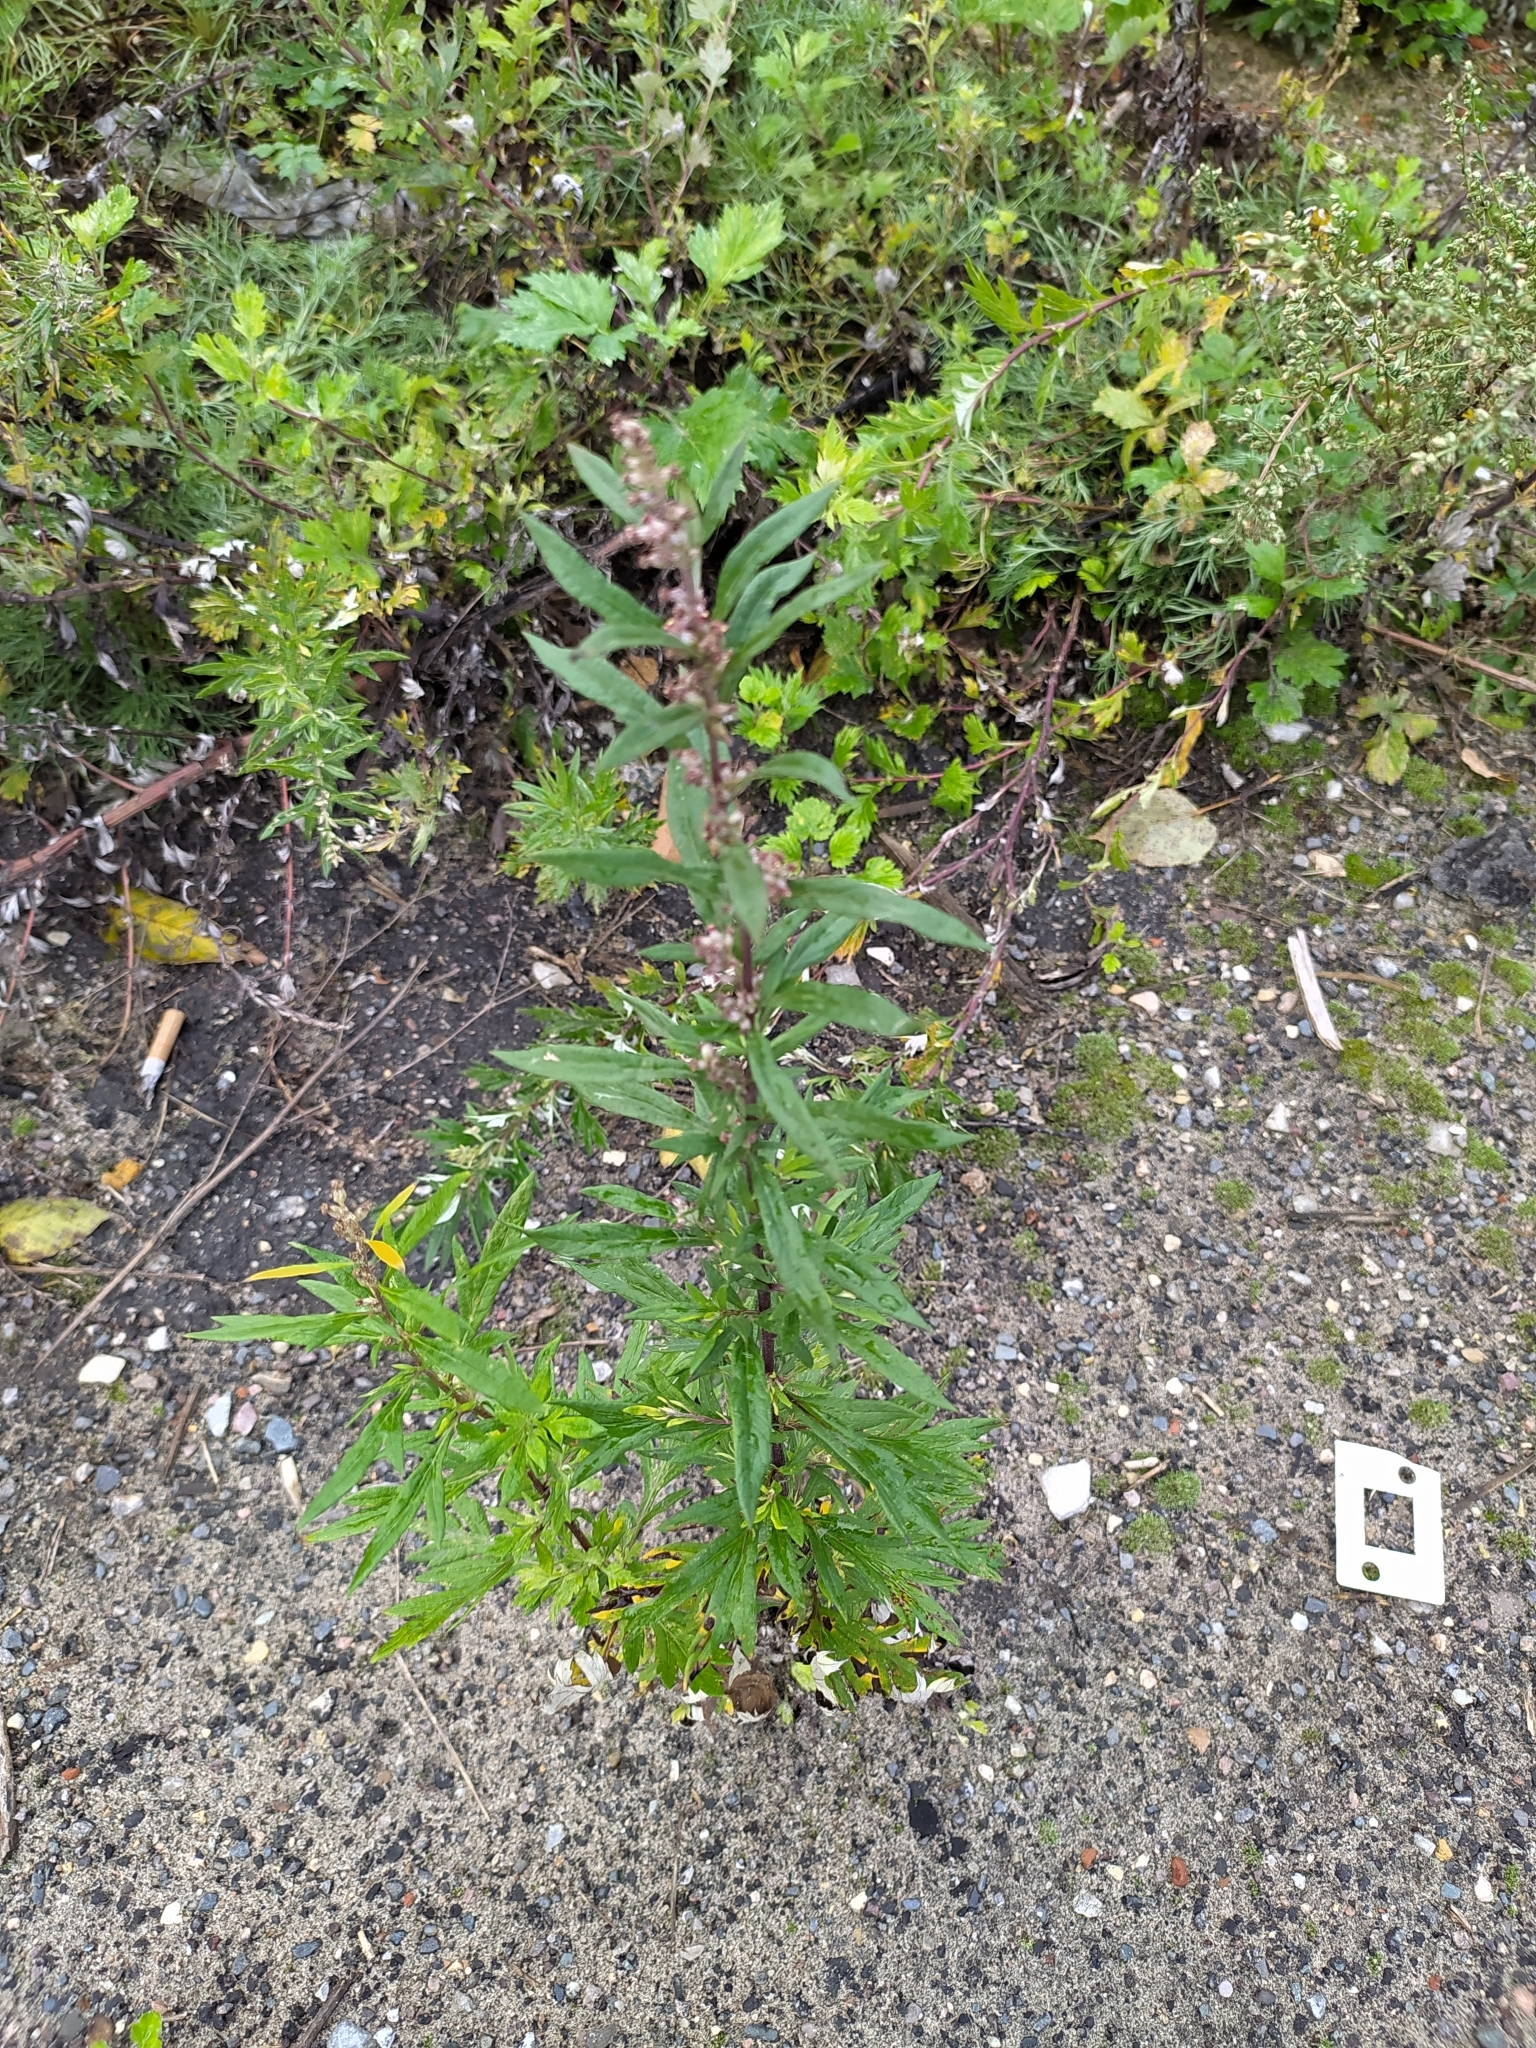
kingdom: Plantae
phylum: Tracheophyta
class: Magnoliopsida
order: Asterales
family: Asteraceae
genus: Artemisia
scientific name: Artemisia vulgaris
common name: Mugwort
